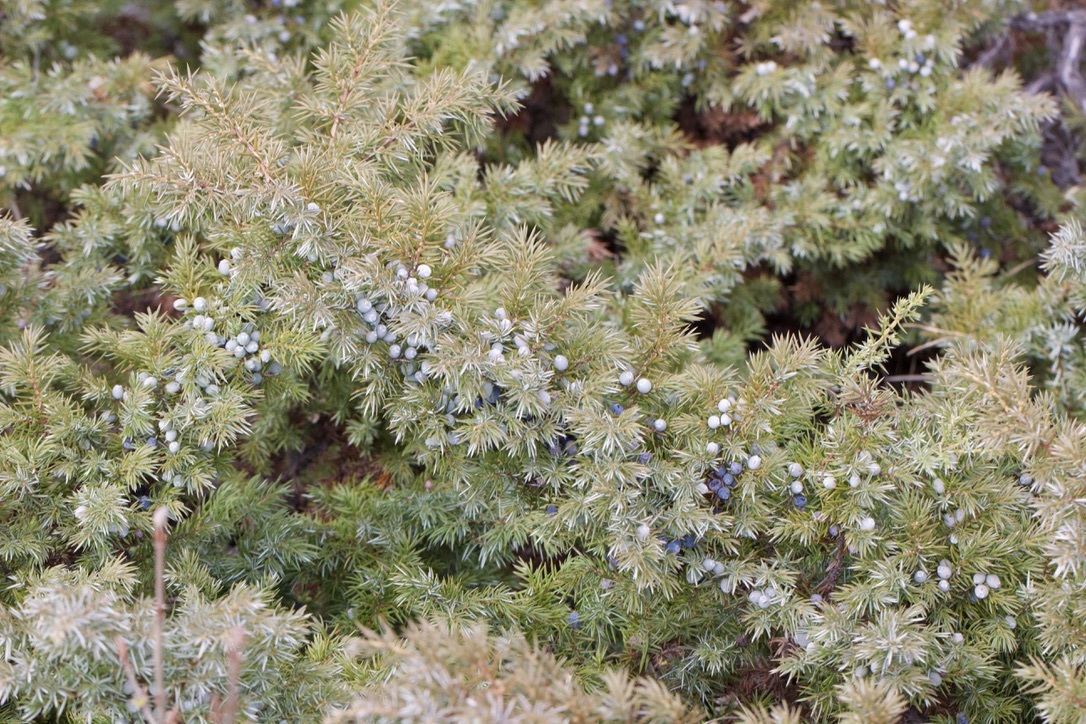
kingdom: Plantae
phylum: Tracheophyta
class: Pinopsida
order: Pinales
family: Cupressaceae
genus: Juniperus
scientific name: Juniperus communis
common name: Common juniper
